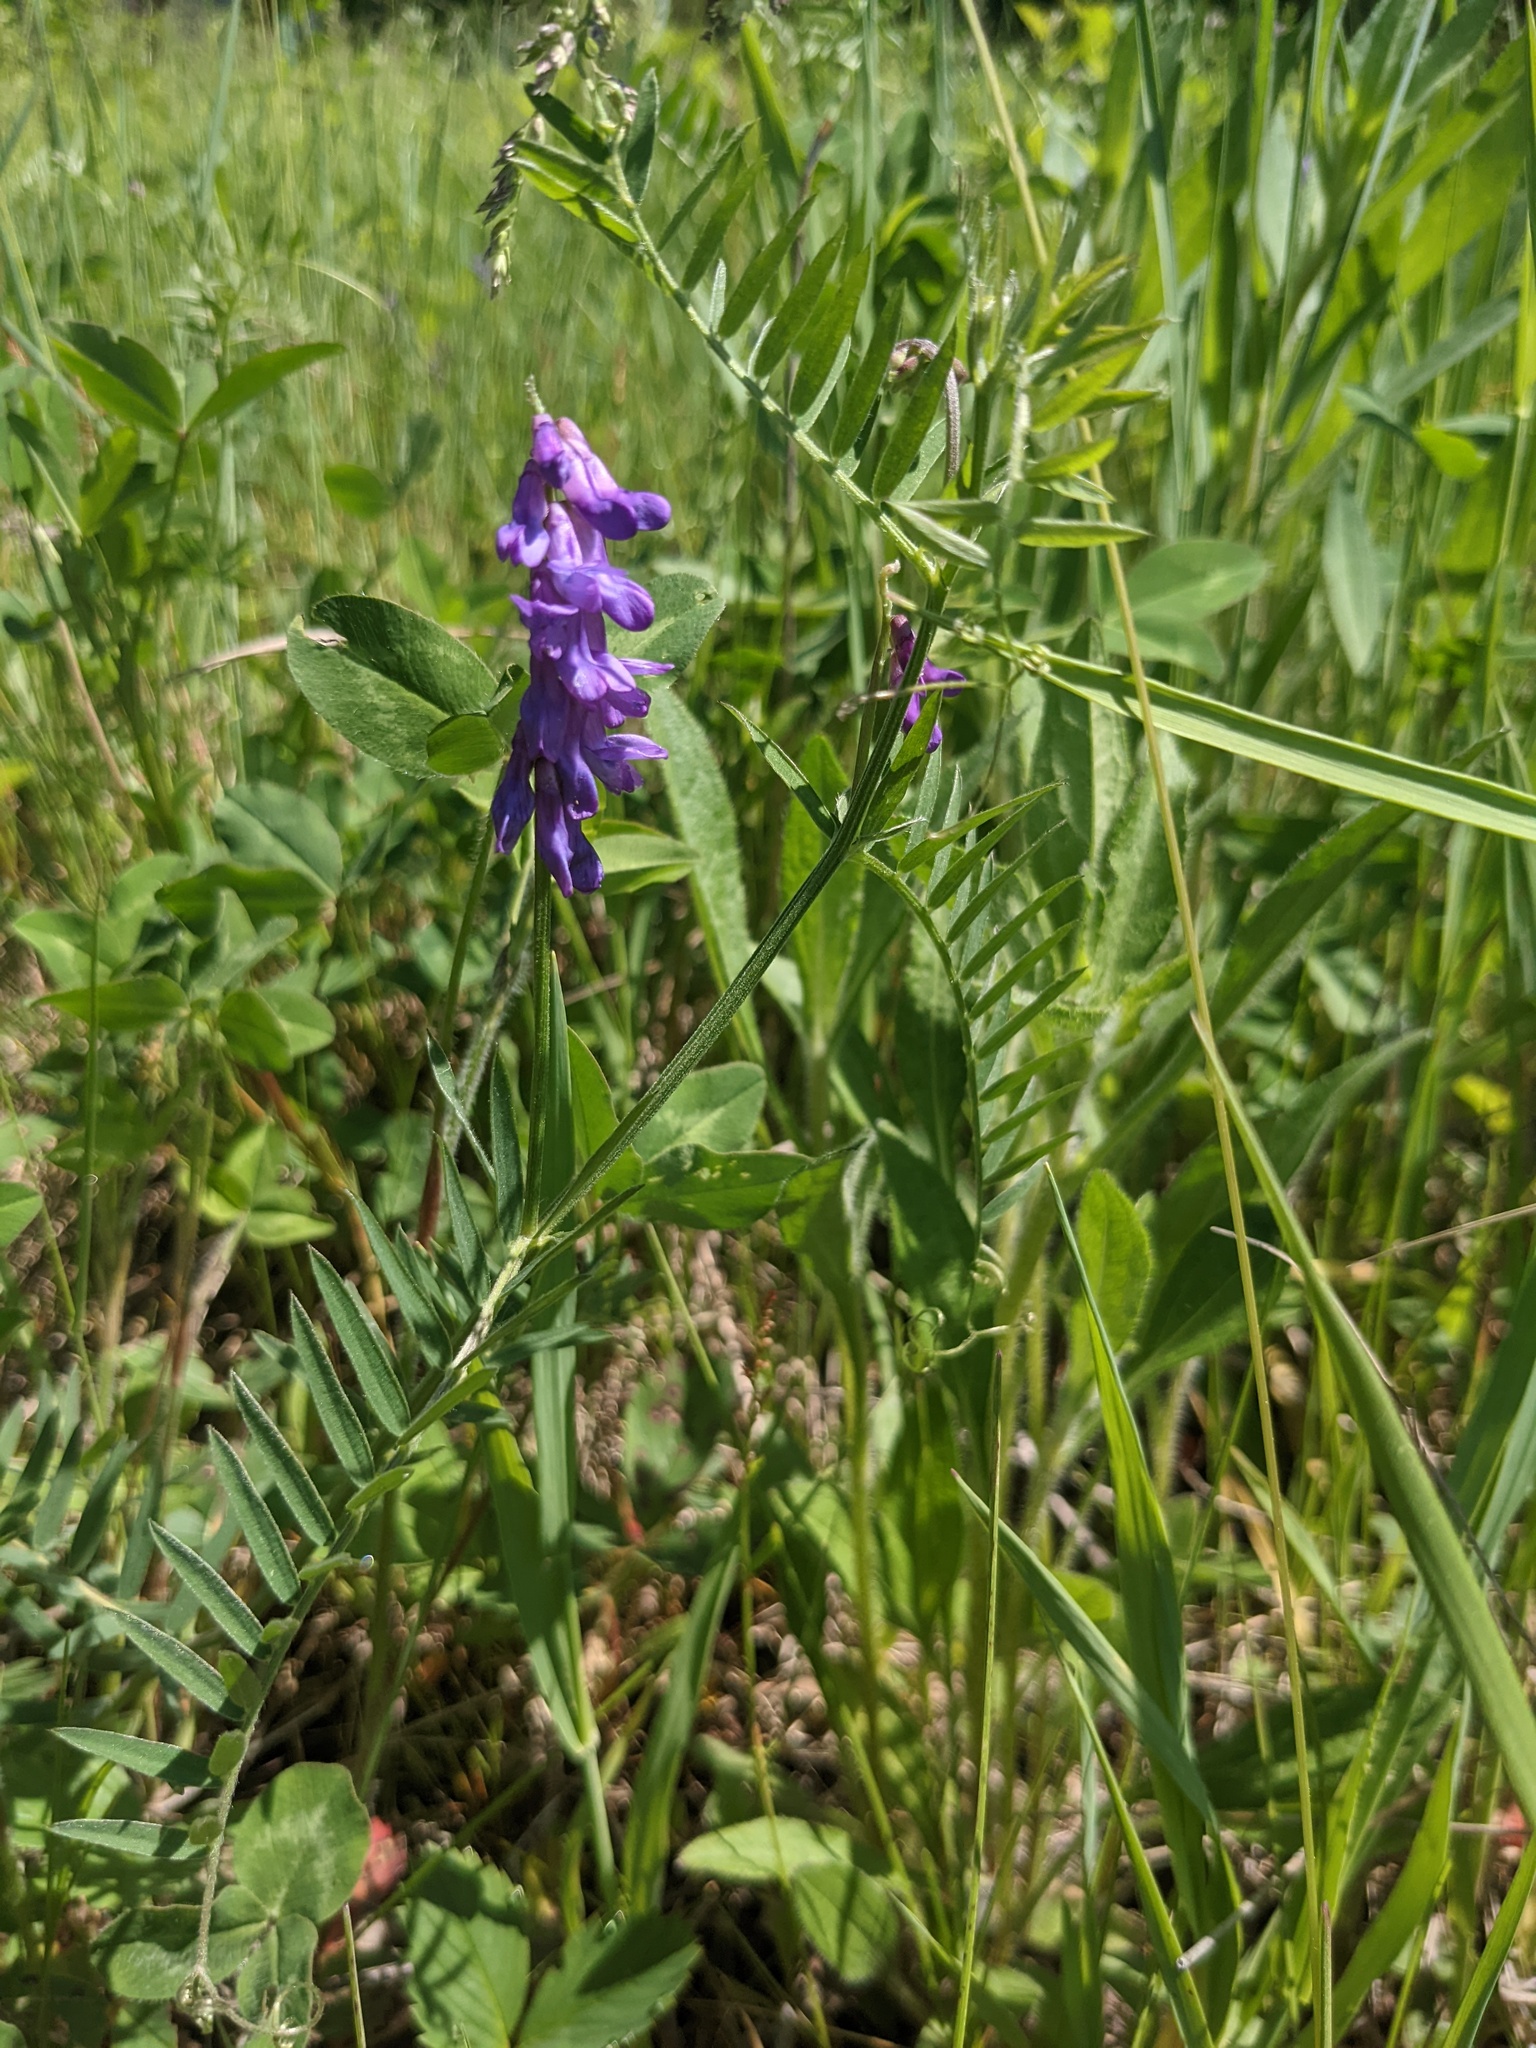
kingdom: Plantae
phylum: Tracheophyta
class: Magnoliopsida
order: Fabales
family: Fabaceae
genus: Vicia
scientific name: Vicia cracca
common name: Bird vetch
